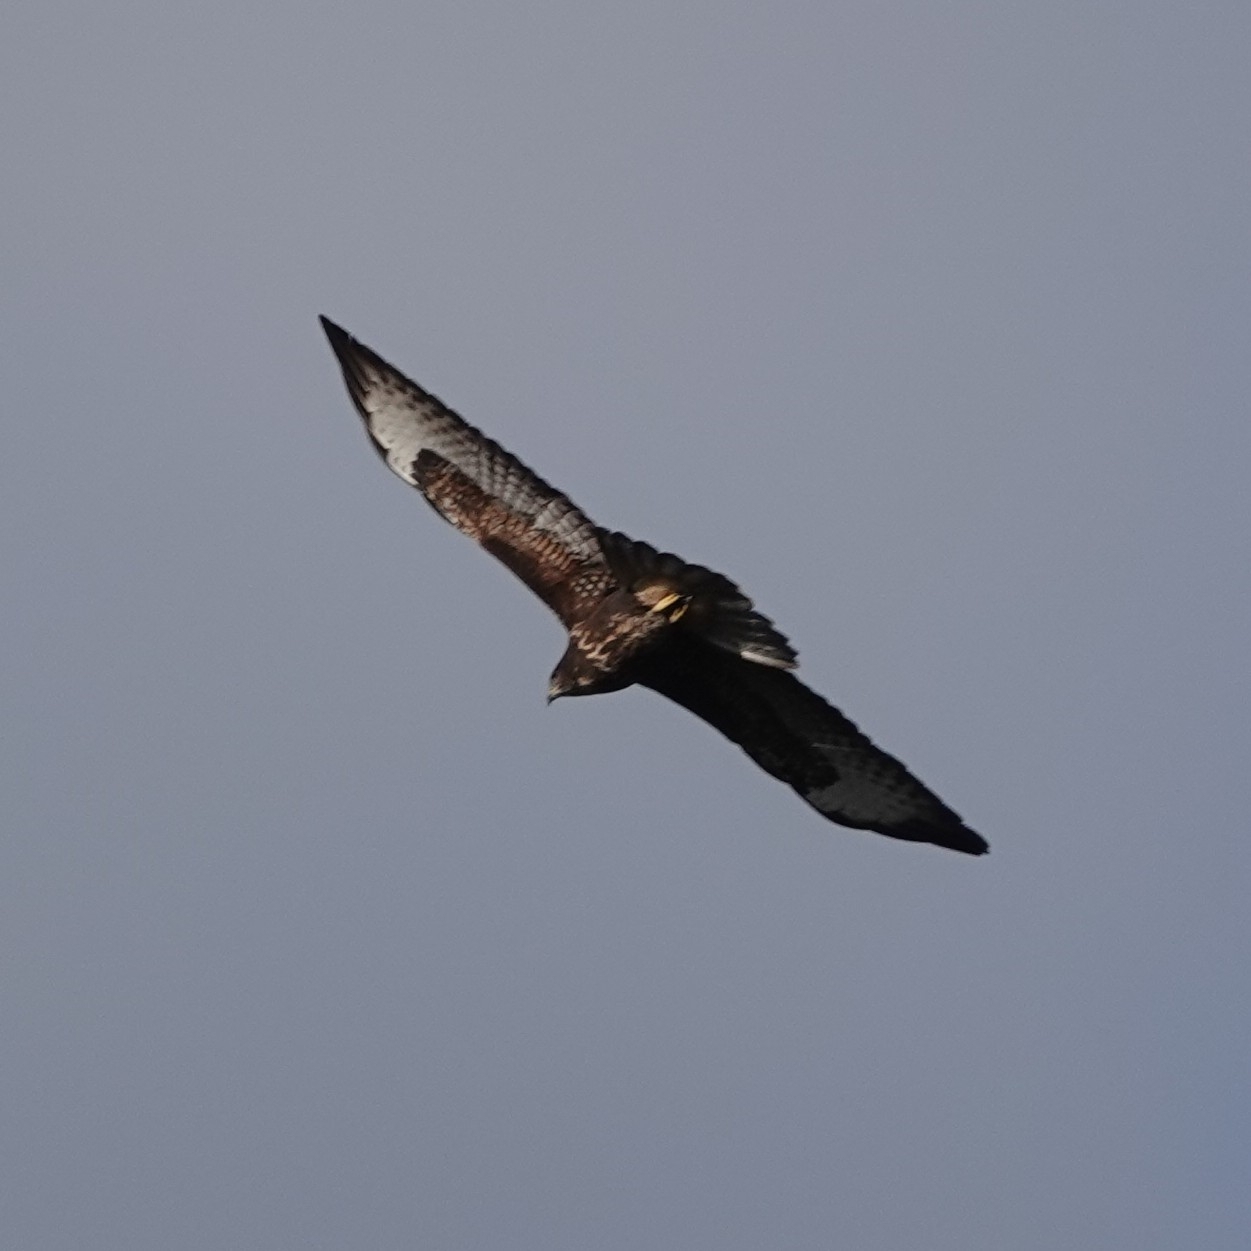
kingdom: Animalia
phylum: Chordata
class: Aves
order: Accipitriformes
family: Accipitridae
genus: Buteo
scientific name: Buteo buteo
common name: Common buzzard
